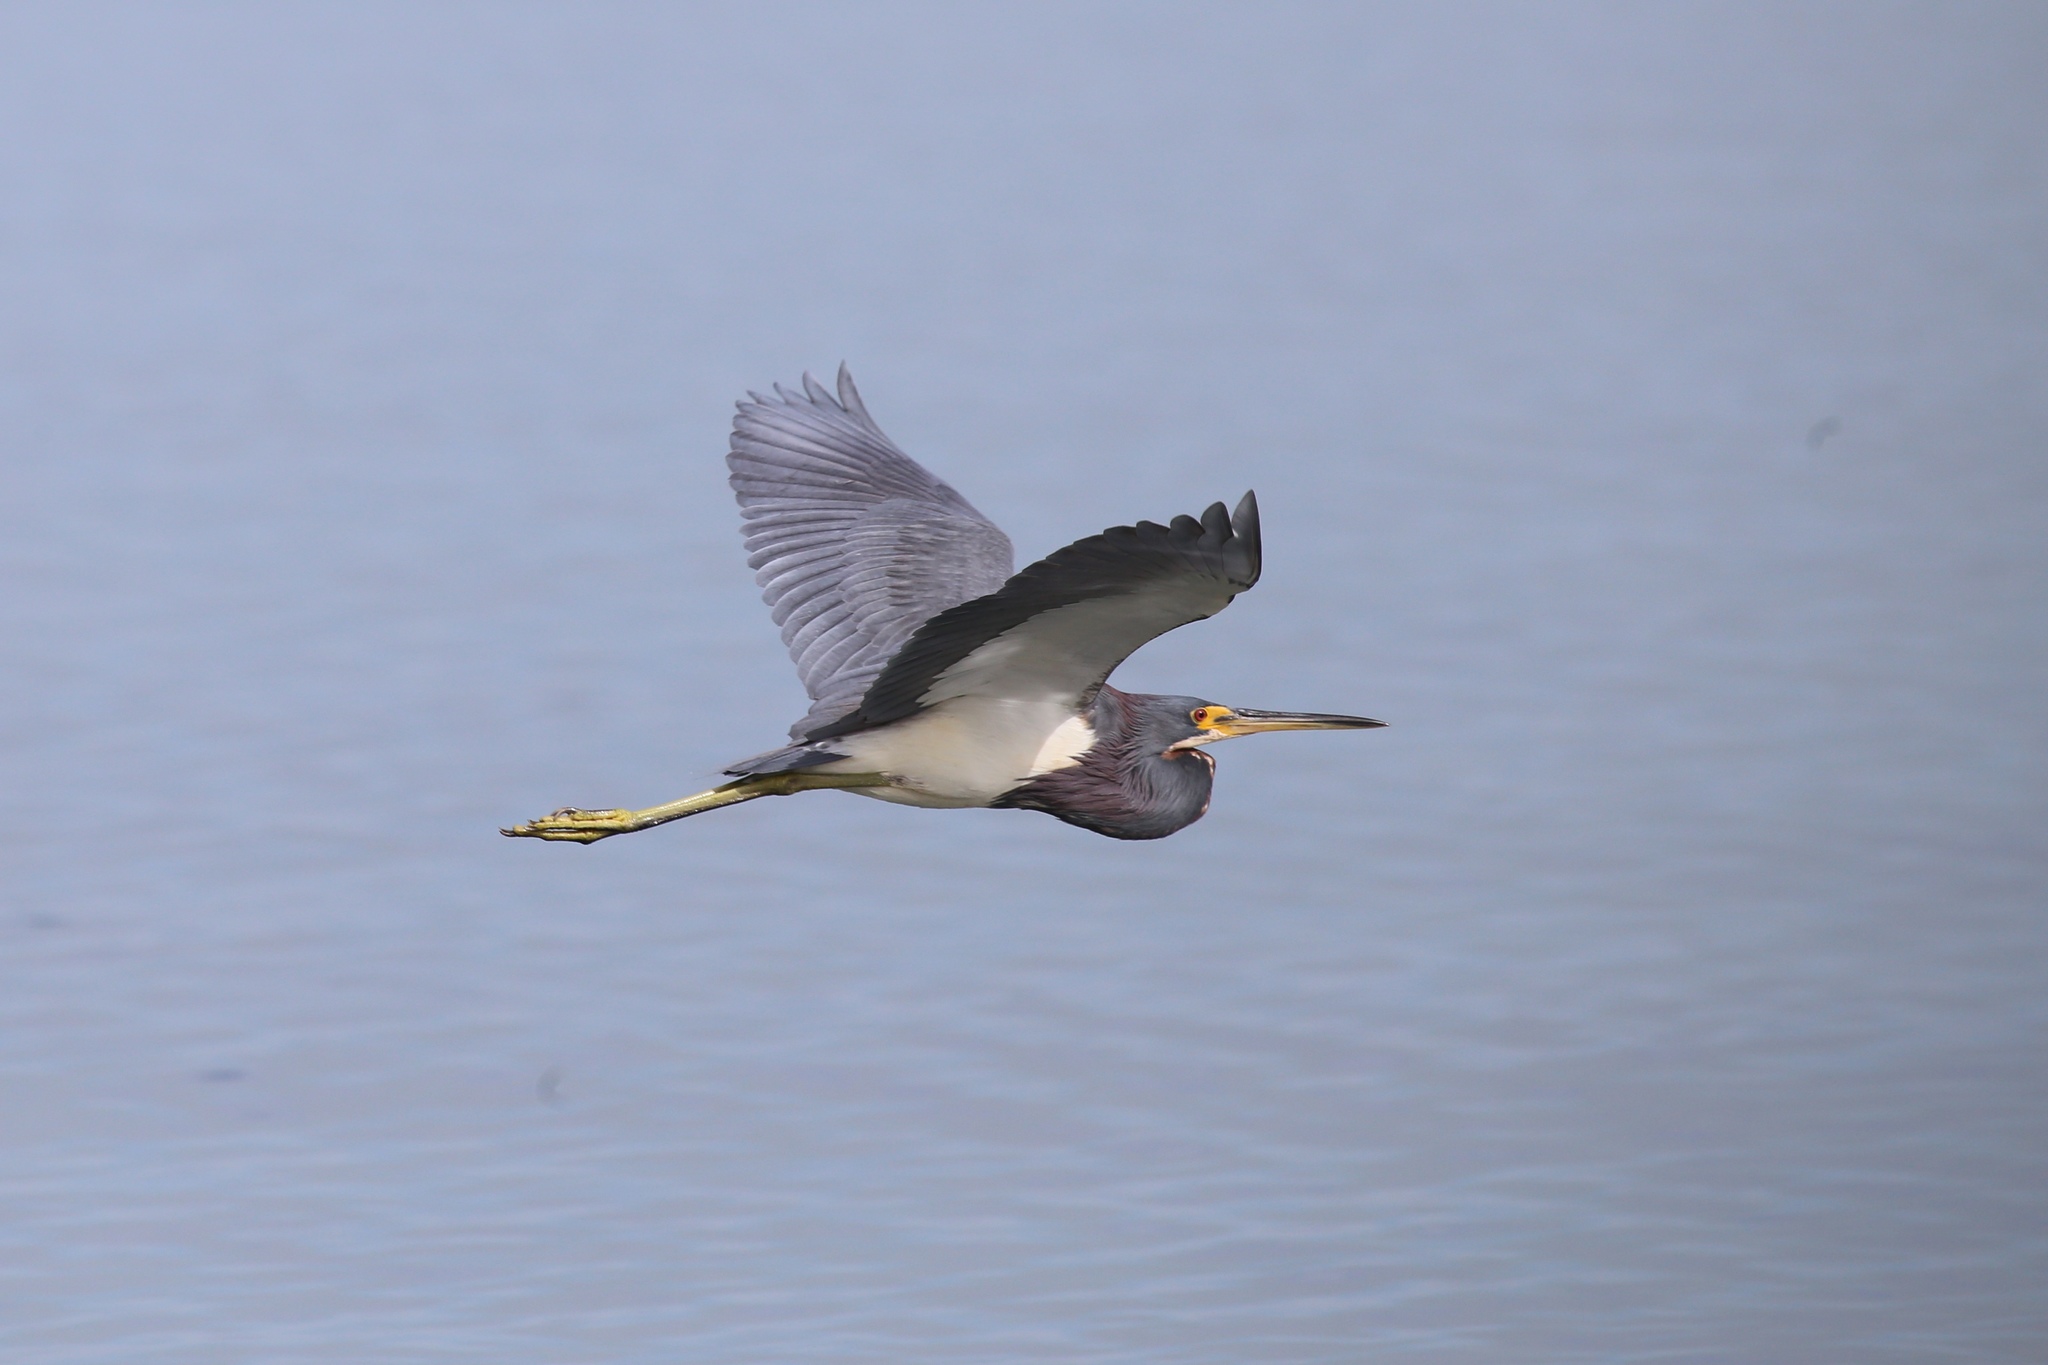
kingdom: Animalia
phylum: Chordata
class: Aves
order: Pelecaniformes
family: Ardeidae
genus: Egretta
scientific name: Egretta tricolor
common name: Tricolored heron
